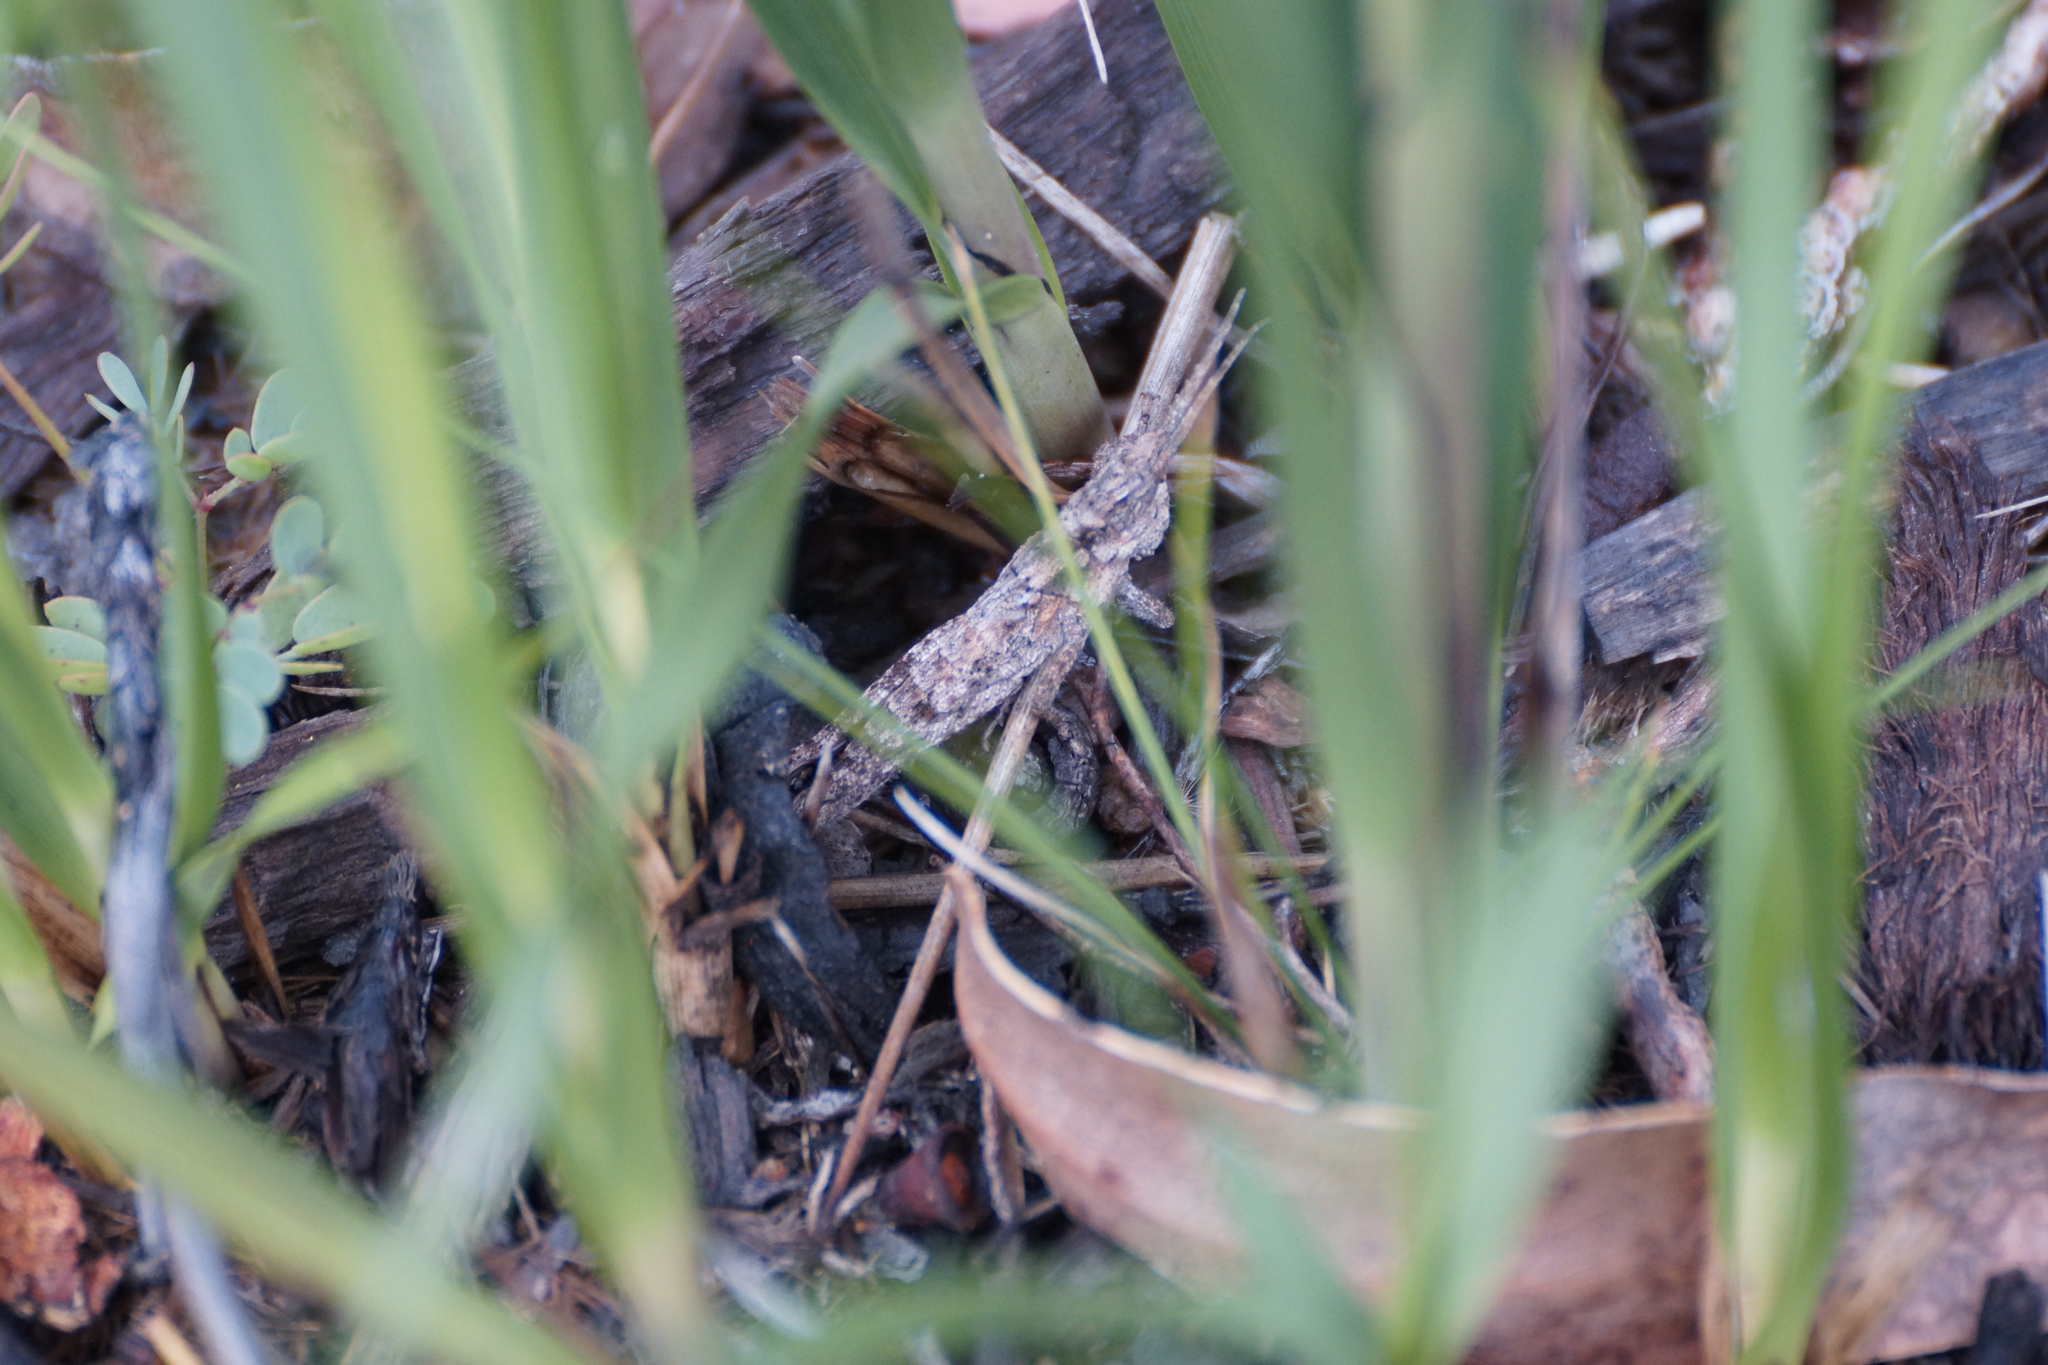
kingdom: Animalia
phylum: Arthropoda
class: Insecta
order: Orthoptera
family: Acrididae
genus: Coryphistes
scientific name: Coryphistes ruricola
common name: Bark-mimicking grasshopper
